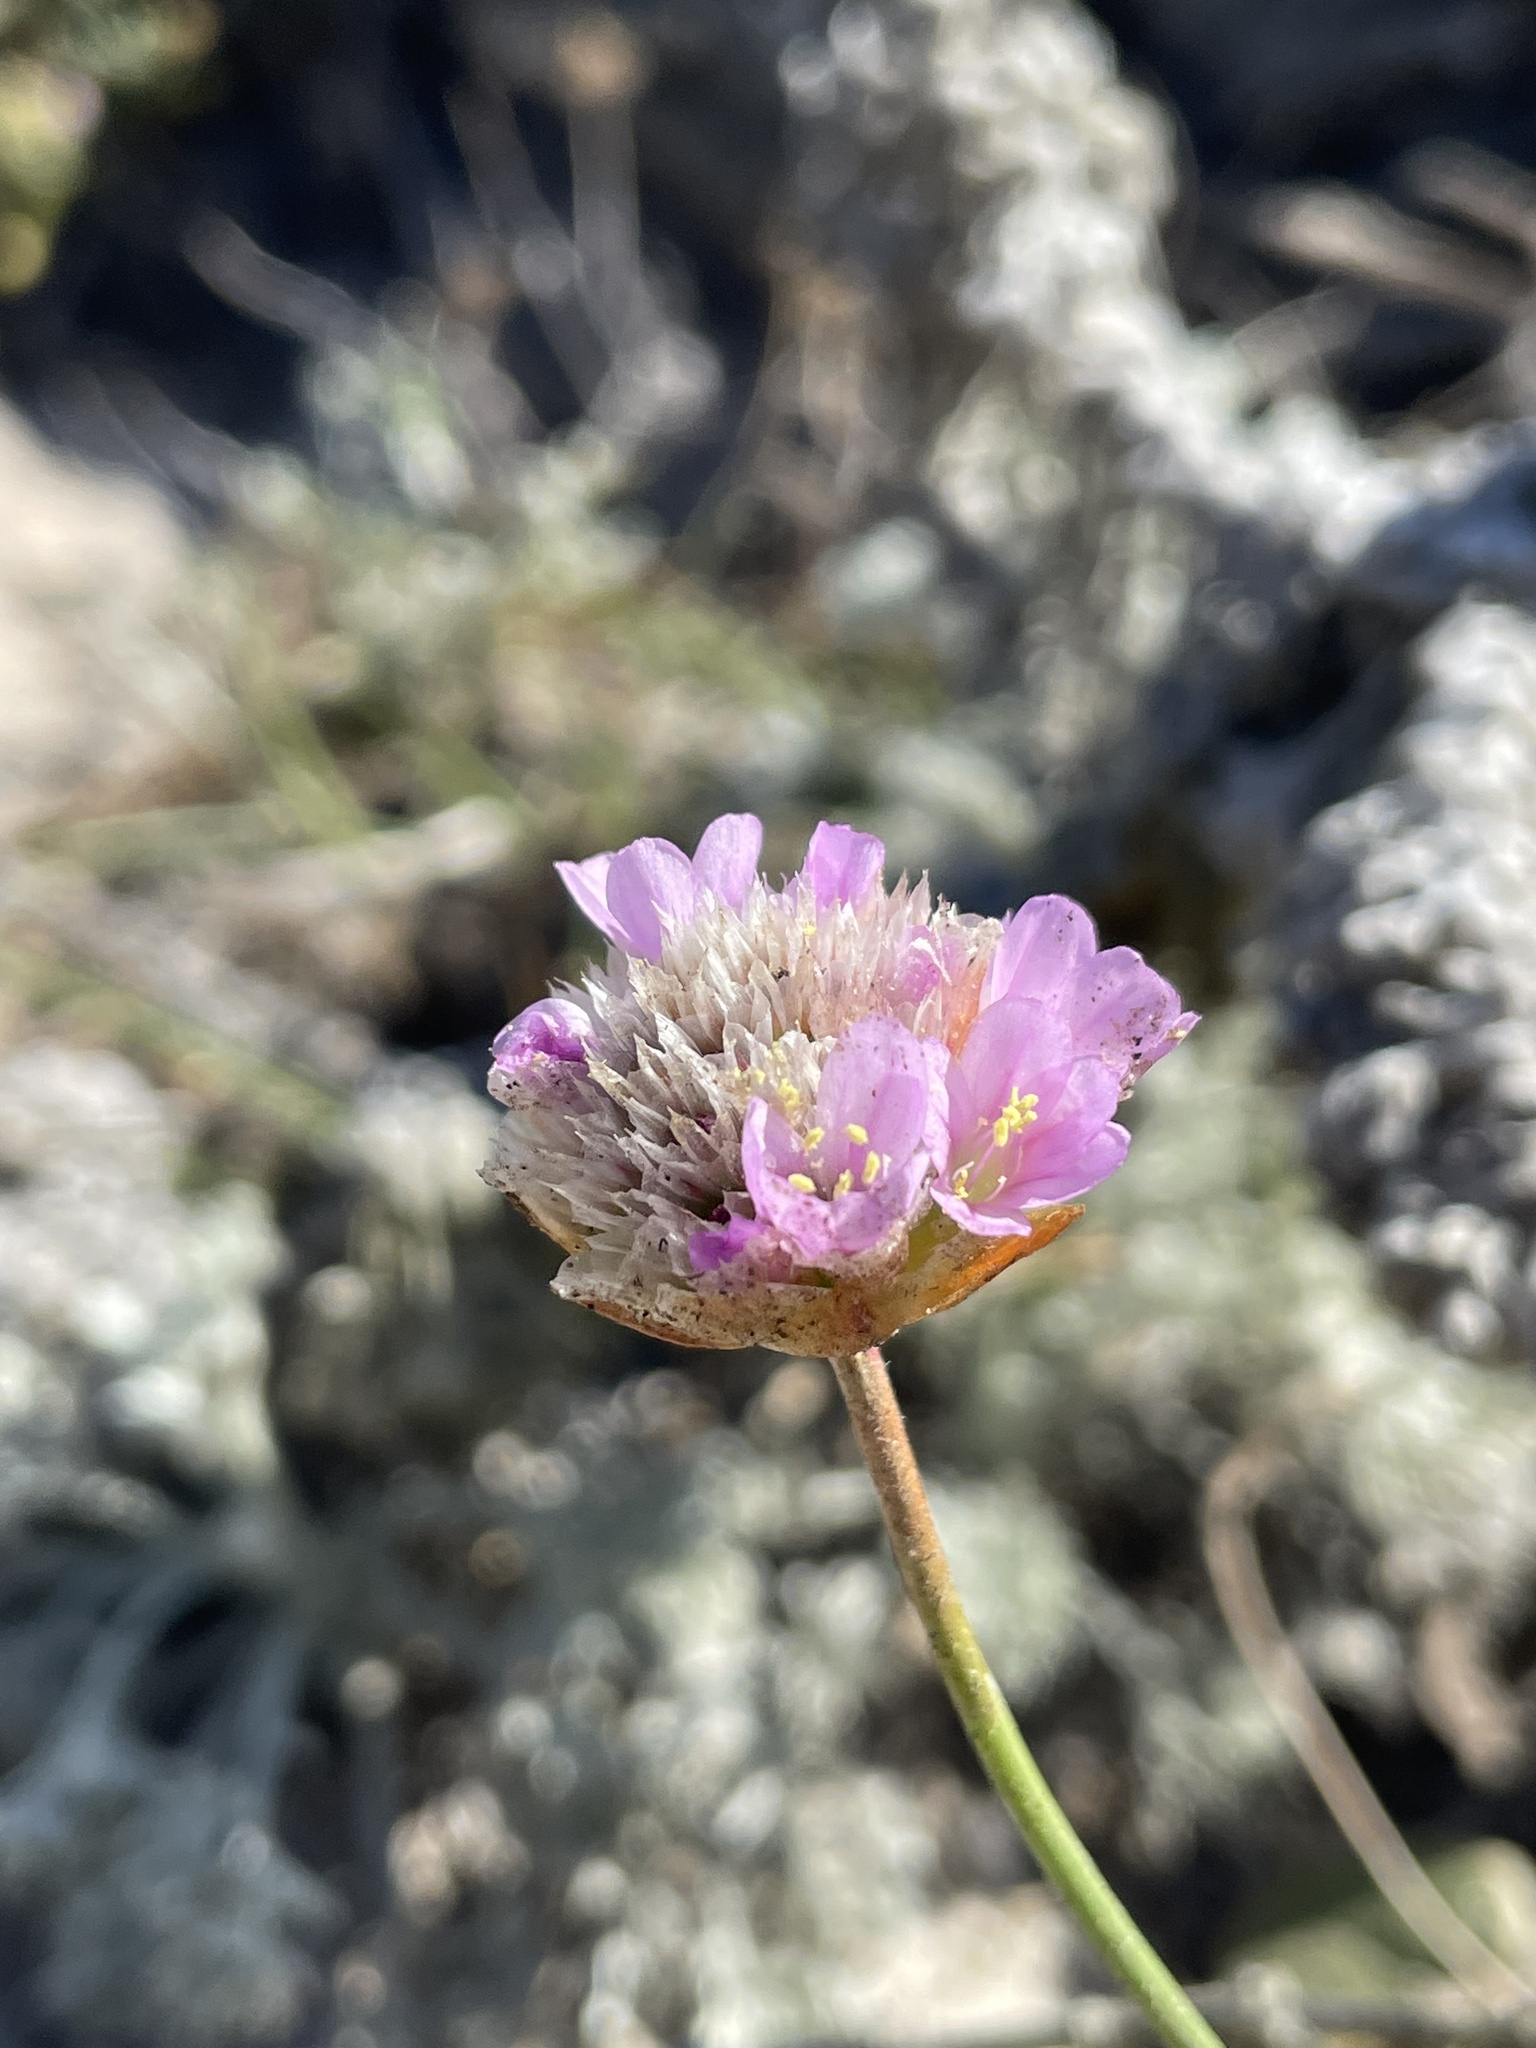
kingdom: Plantae
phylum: Tracheophyta
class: Magnoliopsida
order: Caryophyllales
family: Plumbaginaceae
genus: Armeria
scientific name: Armeria maritima
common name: Thrift
